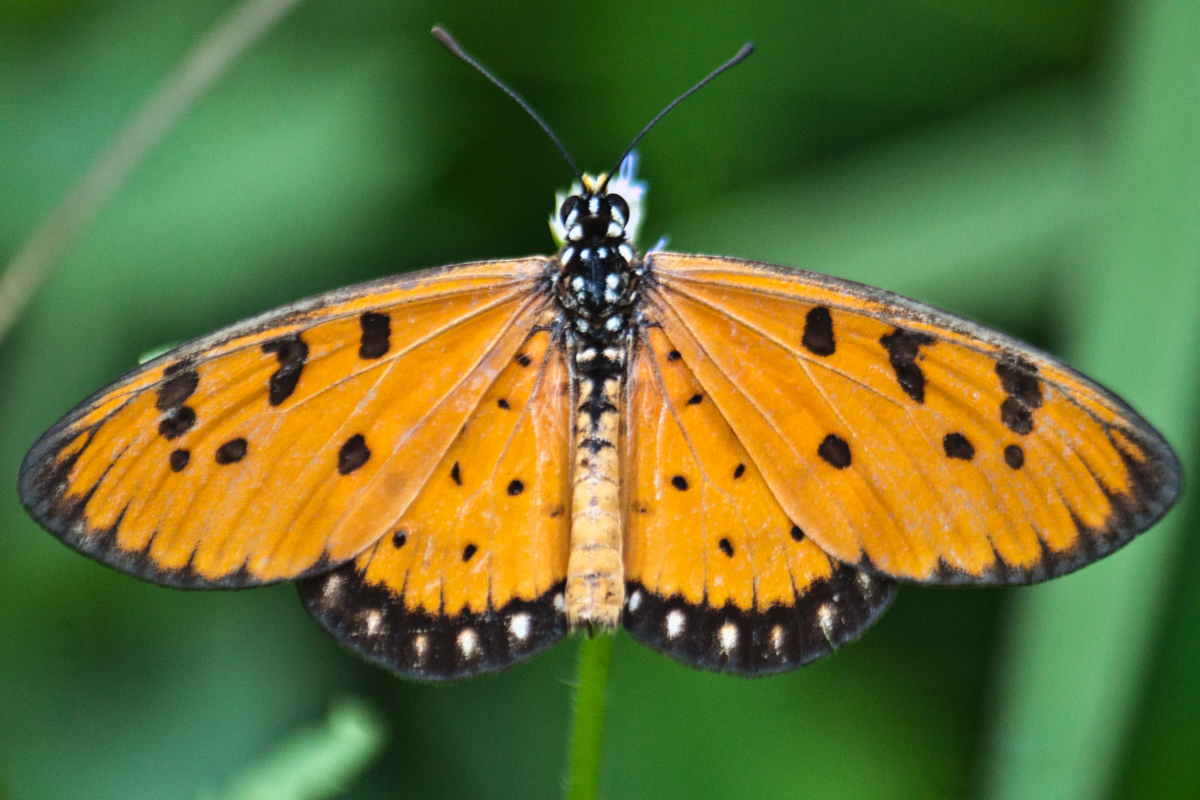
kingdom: Animalia
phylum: Arthropoda
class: Insecta
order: Lepidoptera
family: Nymphalidae
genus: Acraea
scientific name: Acraea terpsicore
